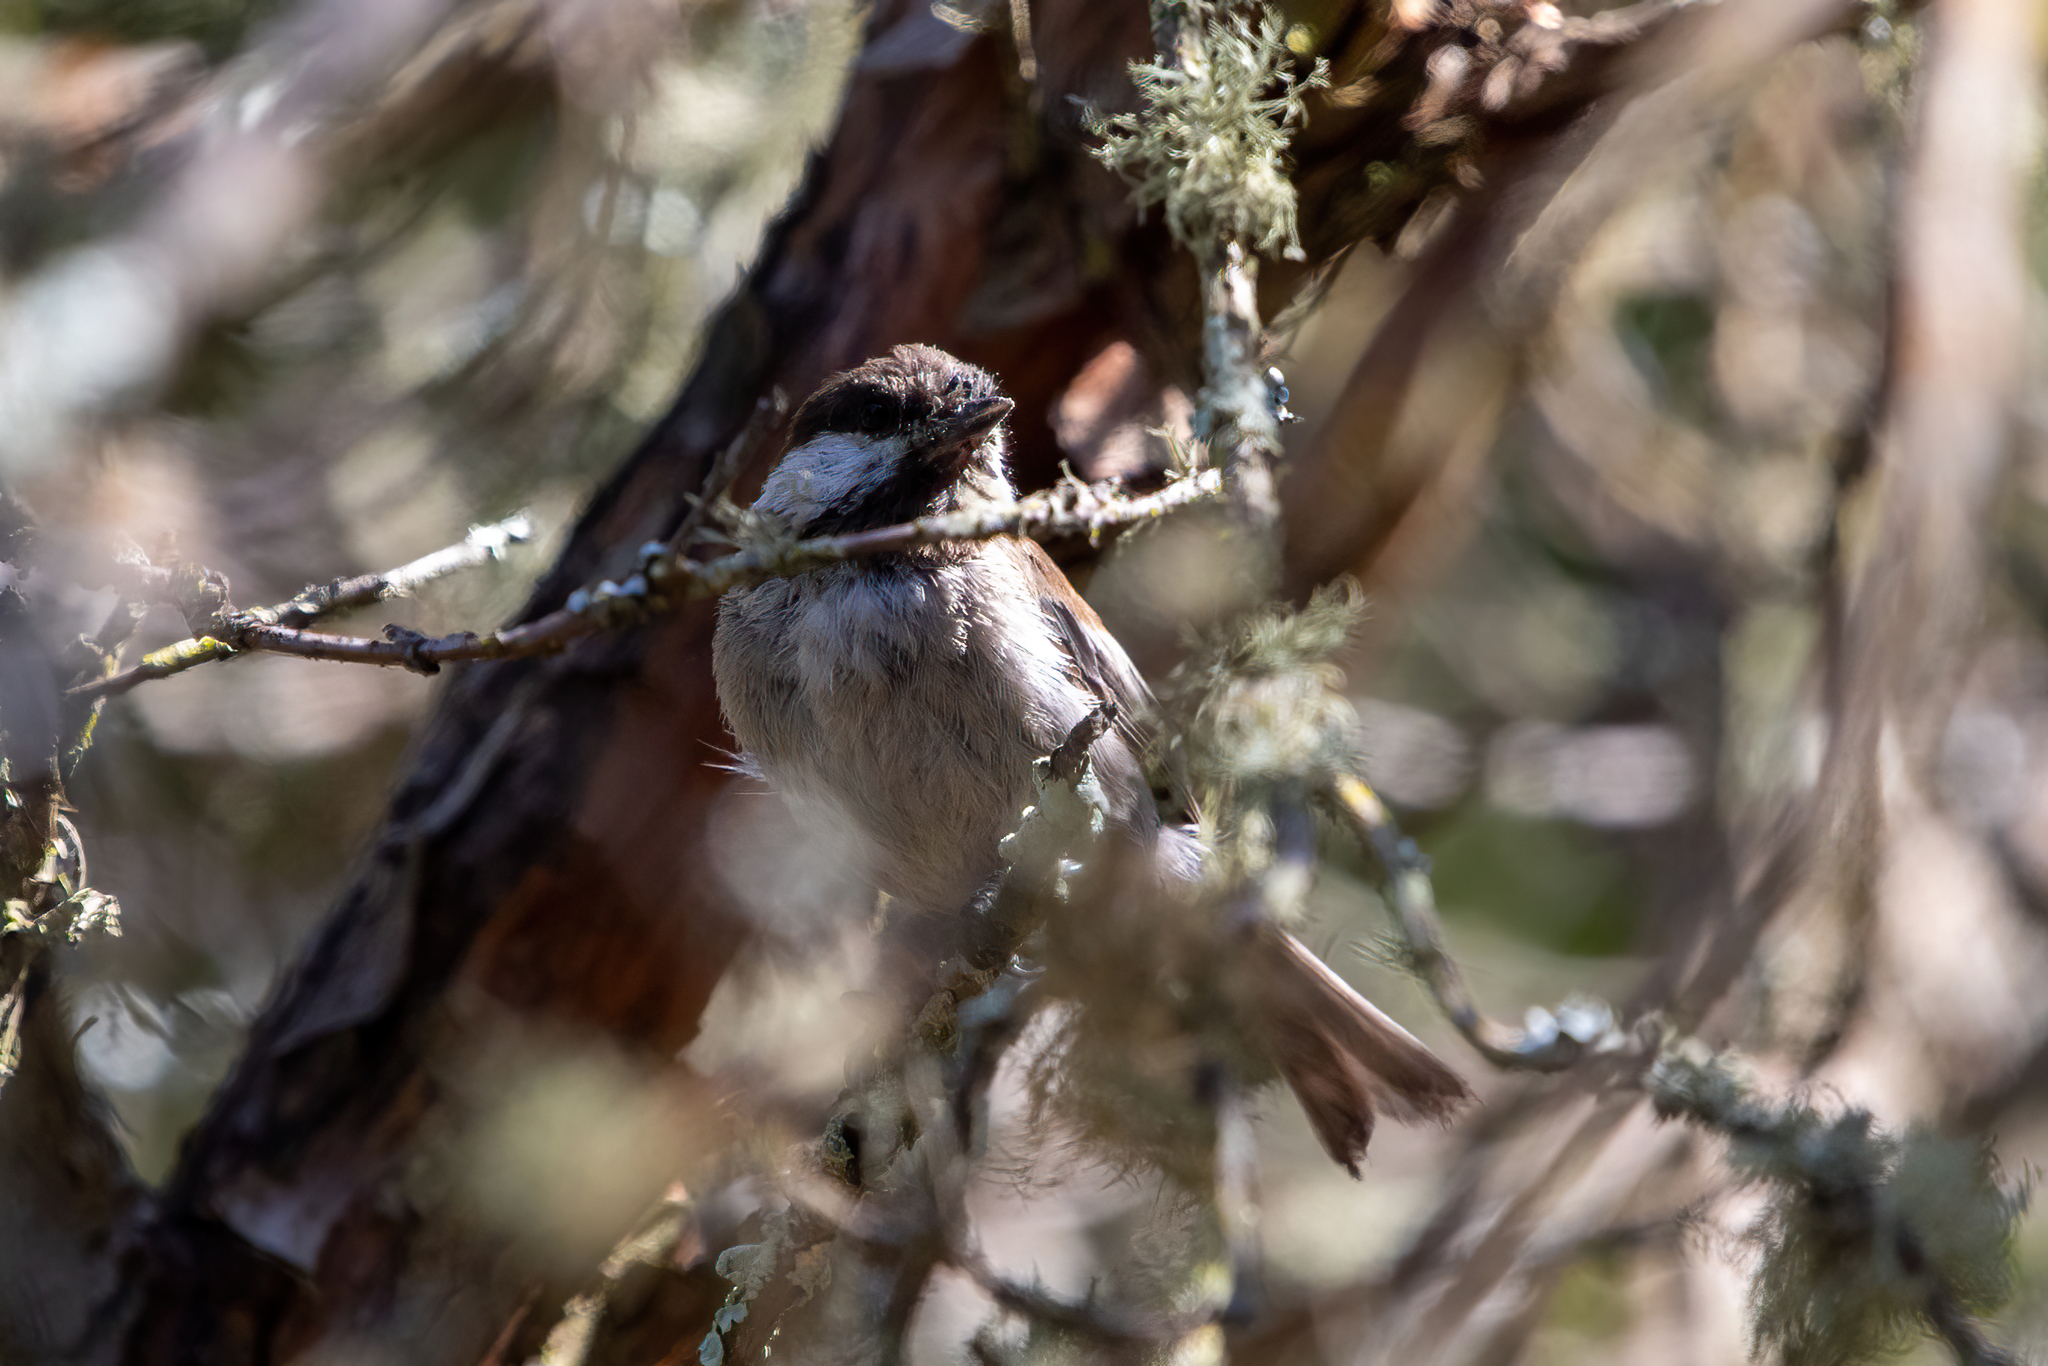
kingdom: Animalia
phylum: Chordata
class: Aves
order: Passeriformes
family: Paridae
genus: Poecile
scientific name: Poecile rufescens
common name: Chestnut-backed chickadee
